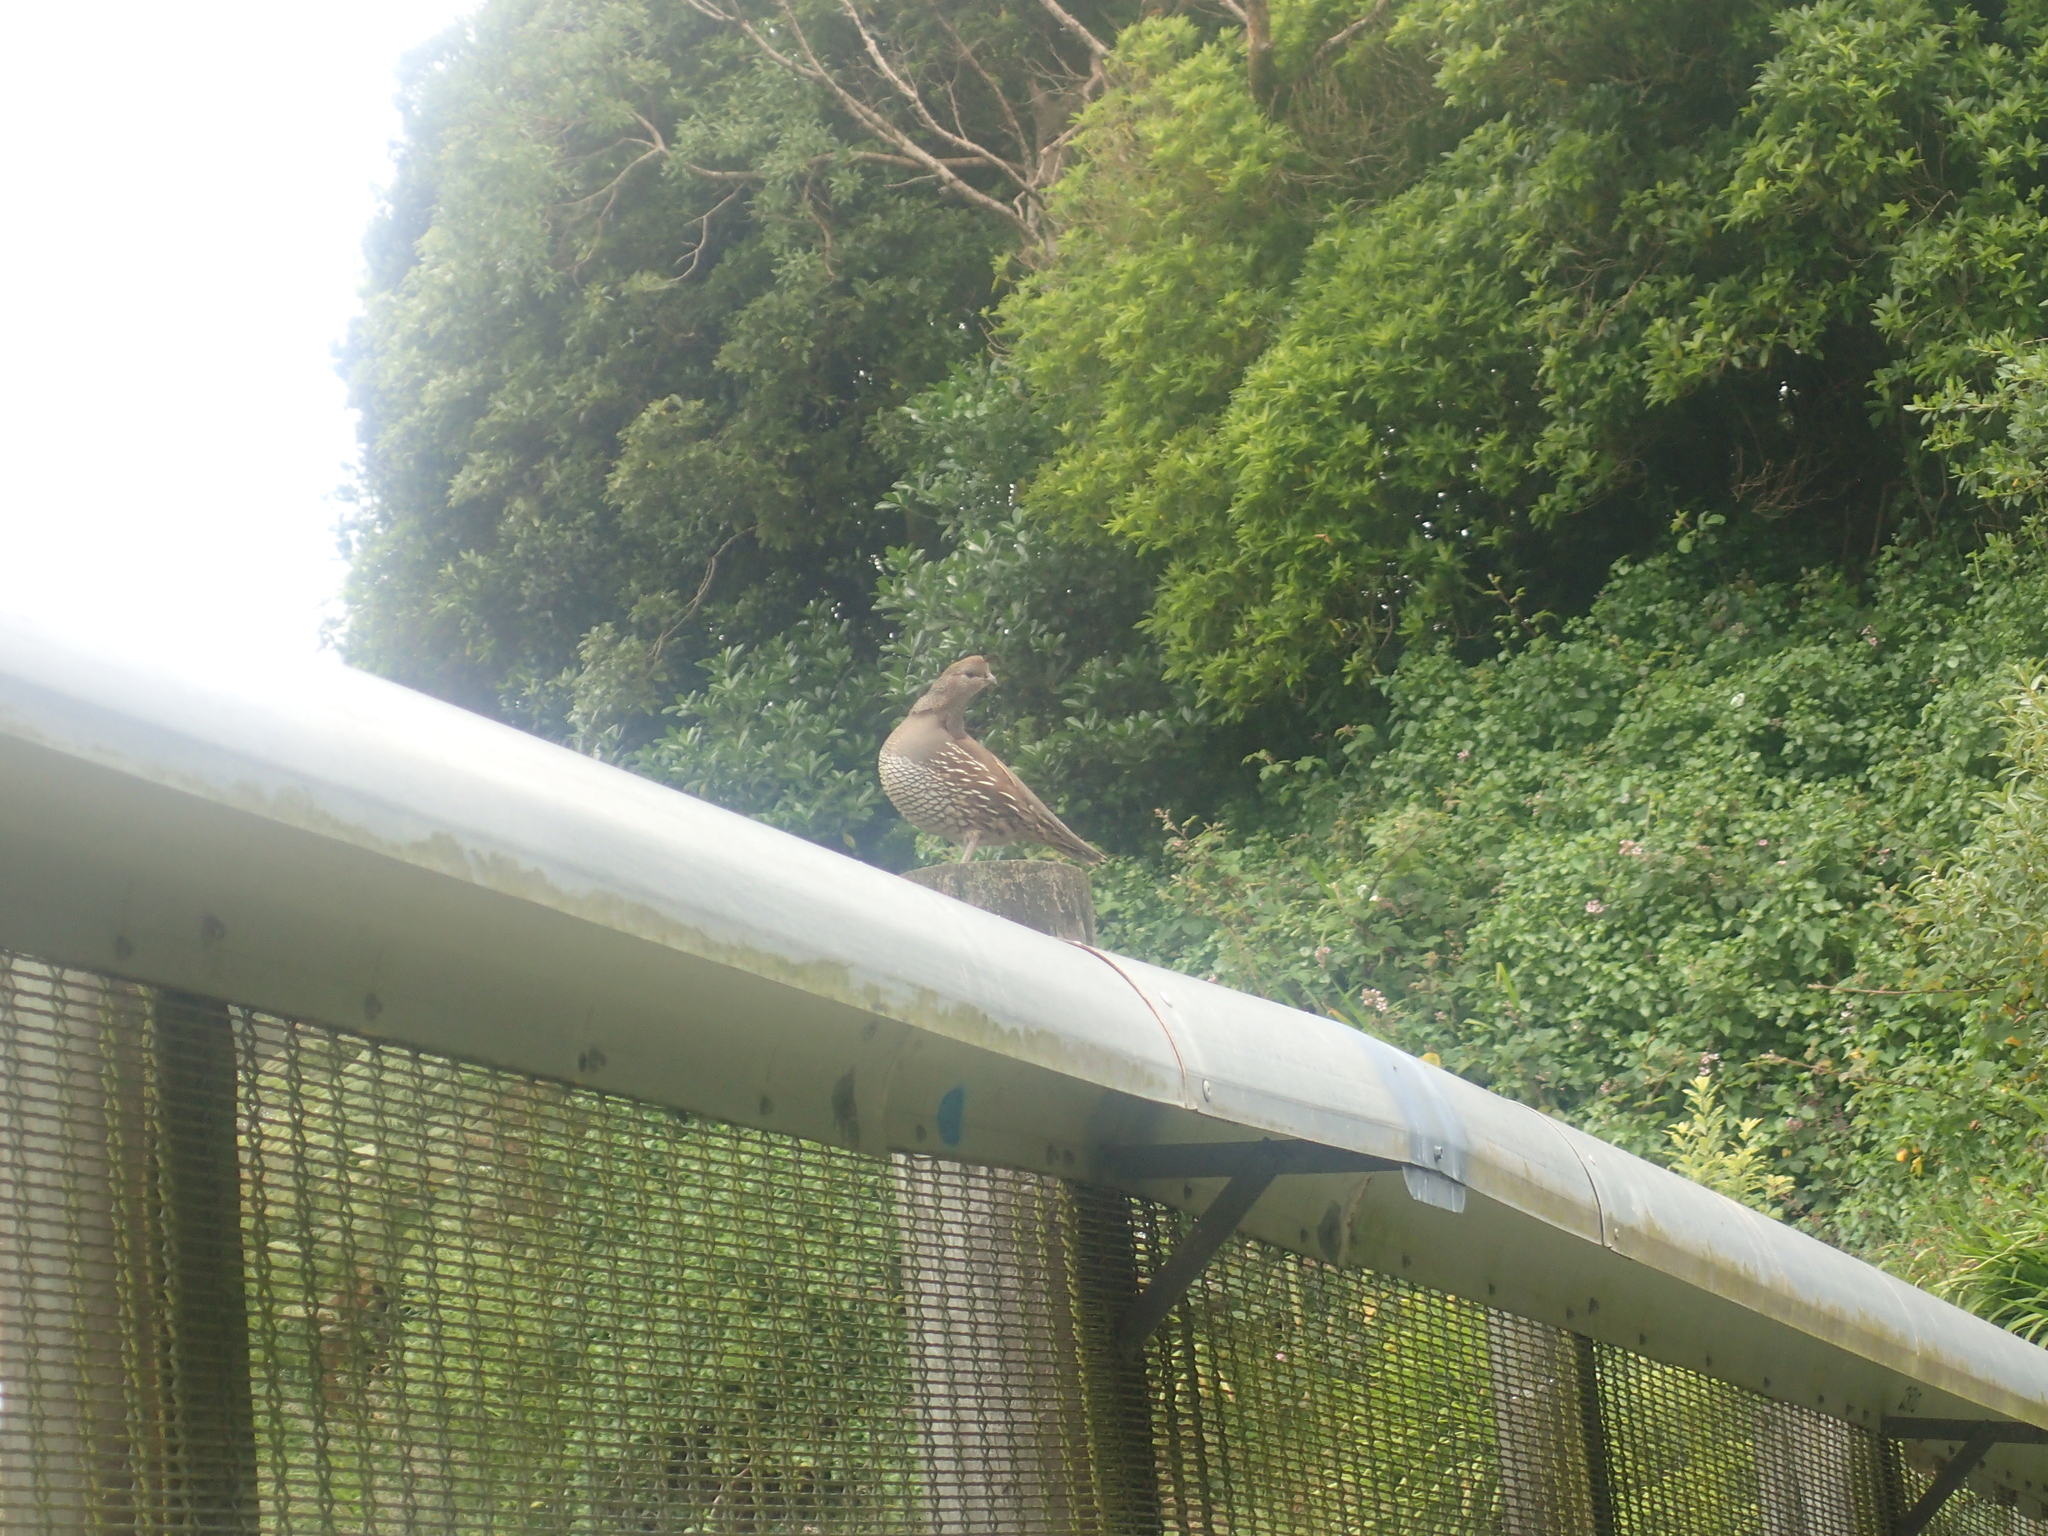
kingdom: Animalia
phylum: Chordata
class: Aves
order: Galliformes
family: Odontophoridae
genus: Callipepla
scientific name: Callipepla californica
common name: California quail
